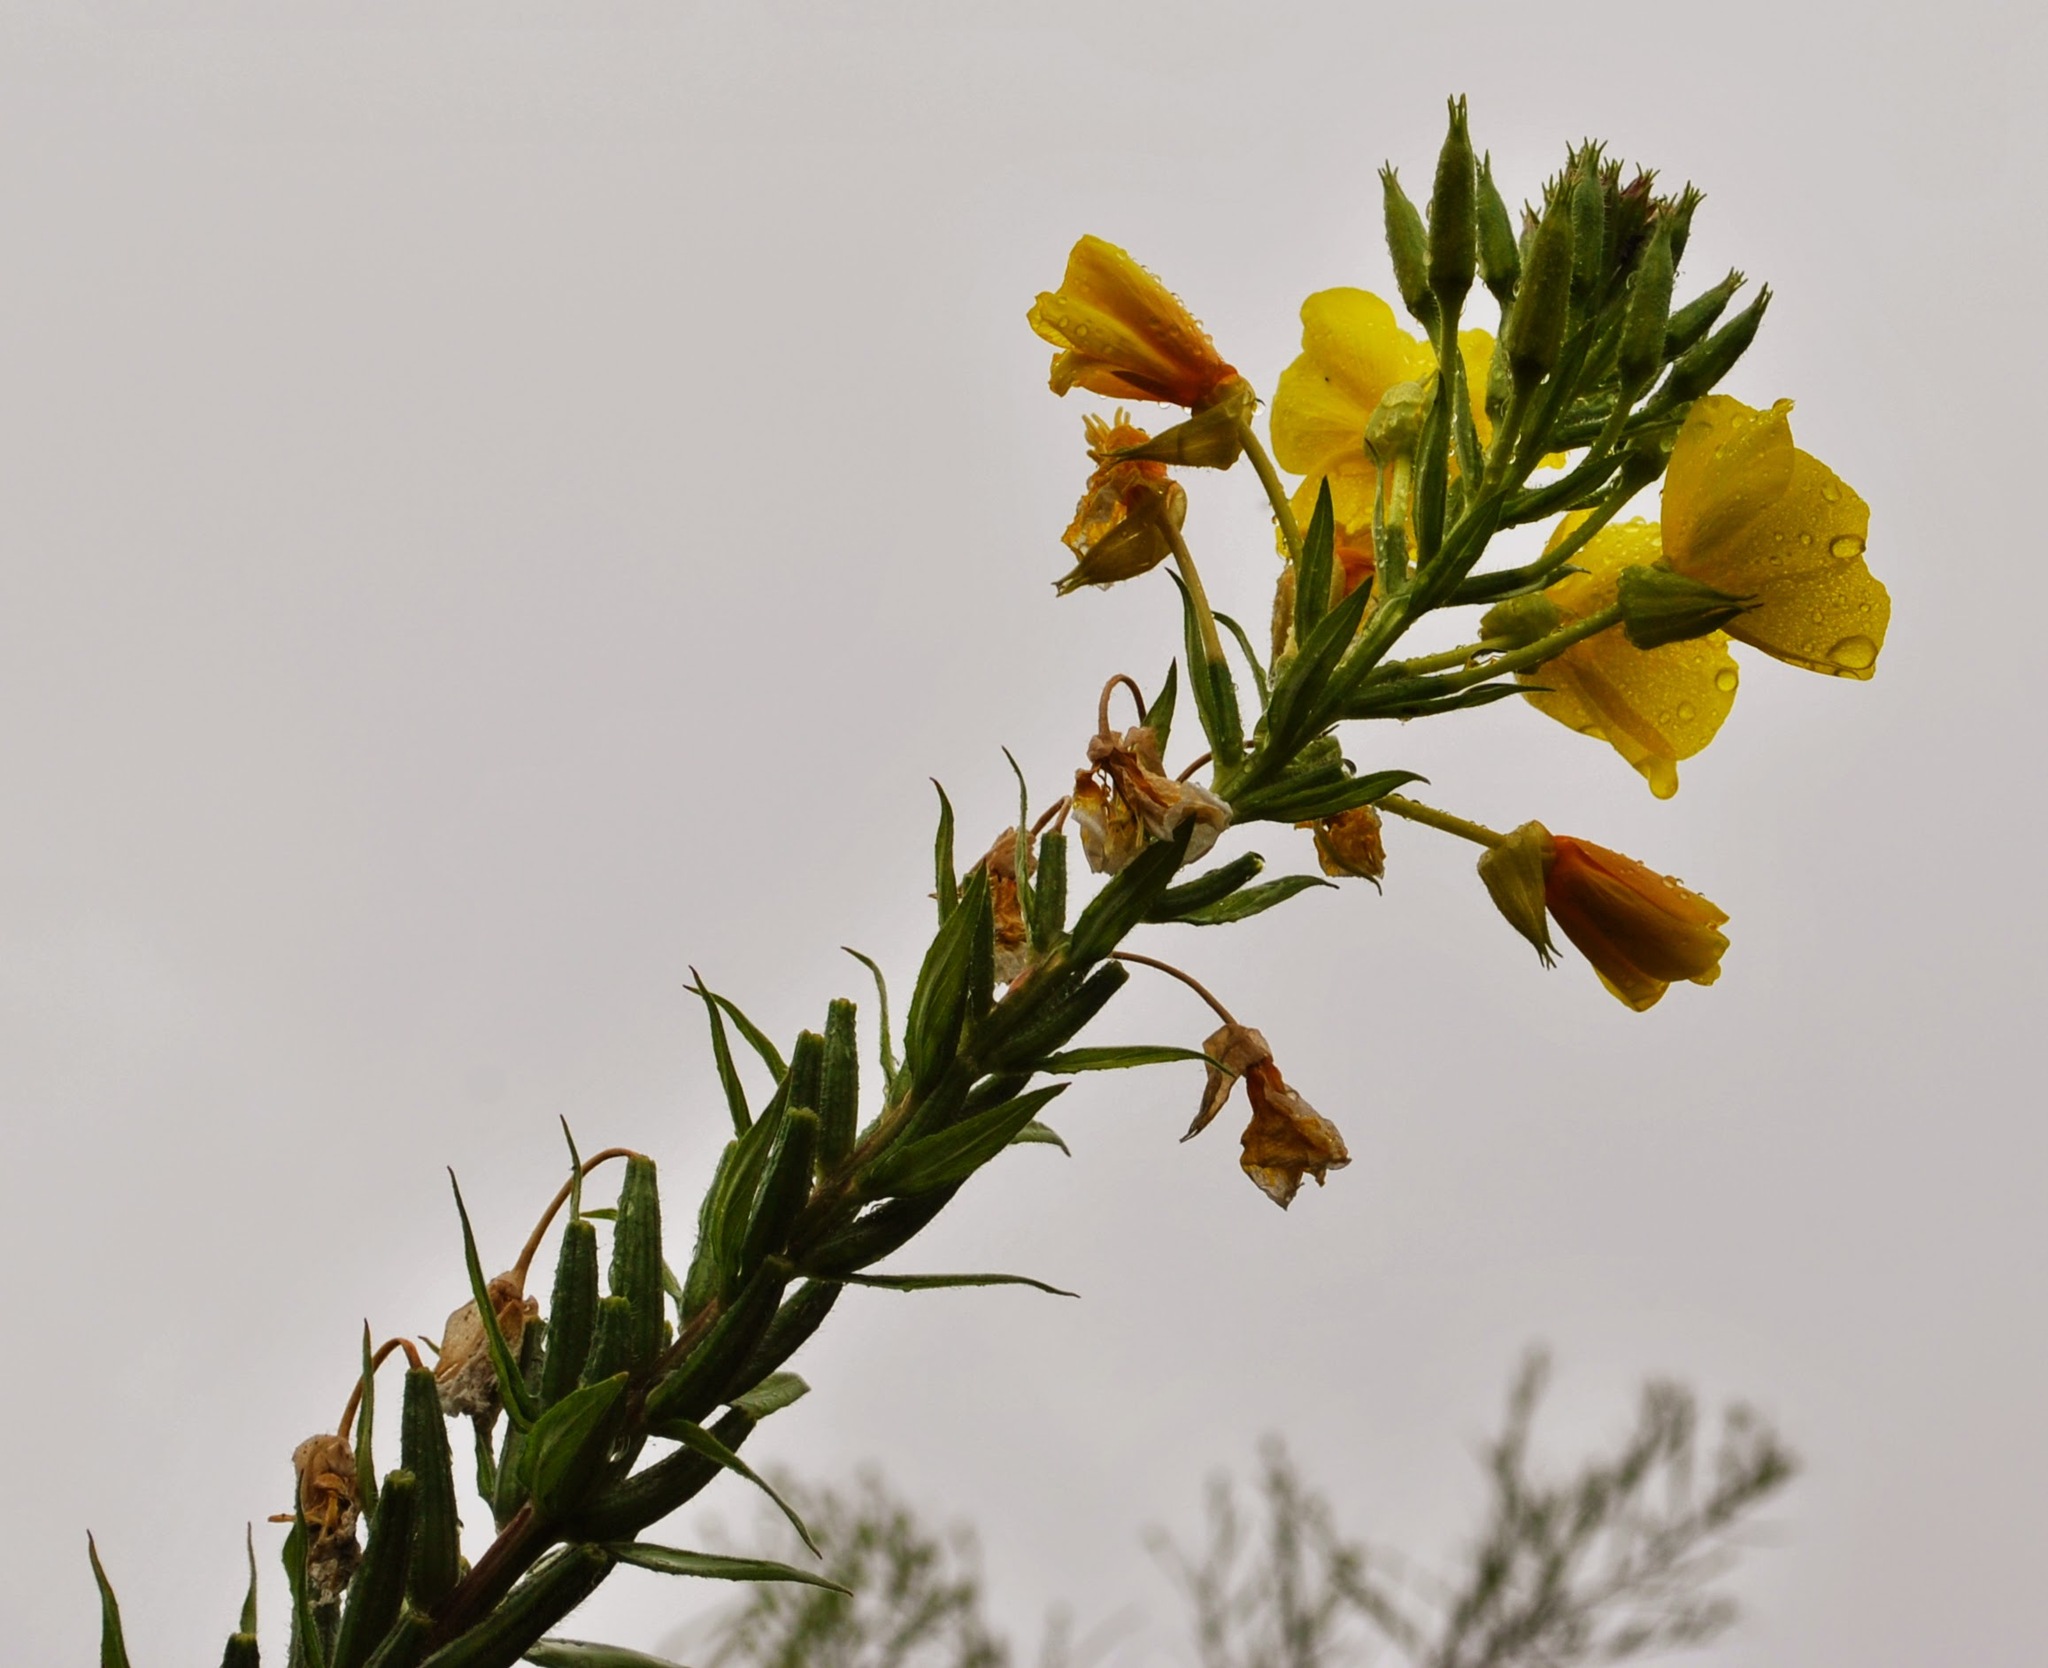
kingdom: Plantae
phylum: Tracheophyta
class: Magnoliopsida
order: Myrtales
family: Onagraceae
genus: Oenothera
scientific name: Oenothera biennis
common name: Common evening-primrose
